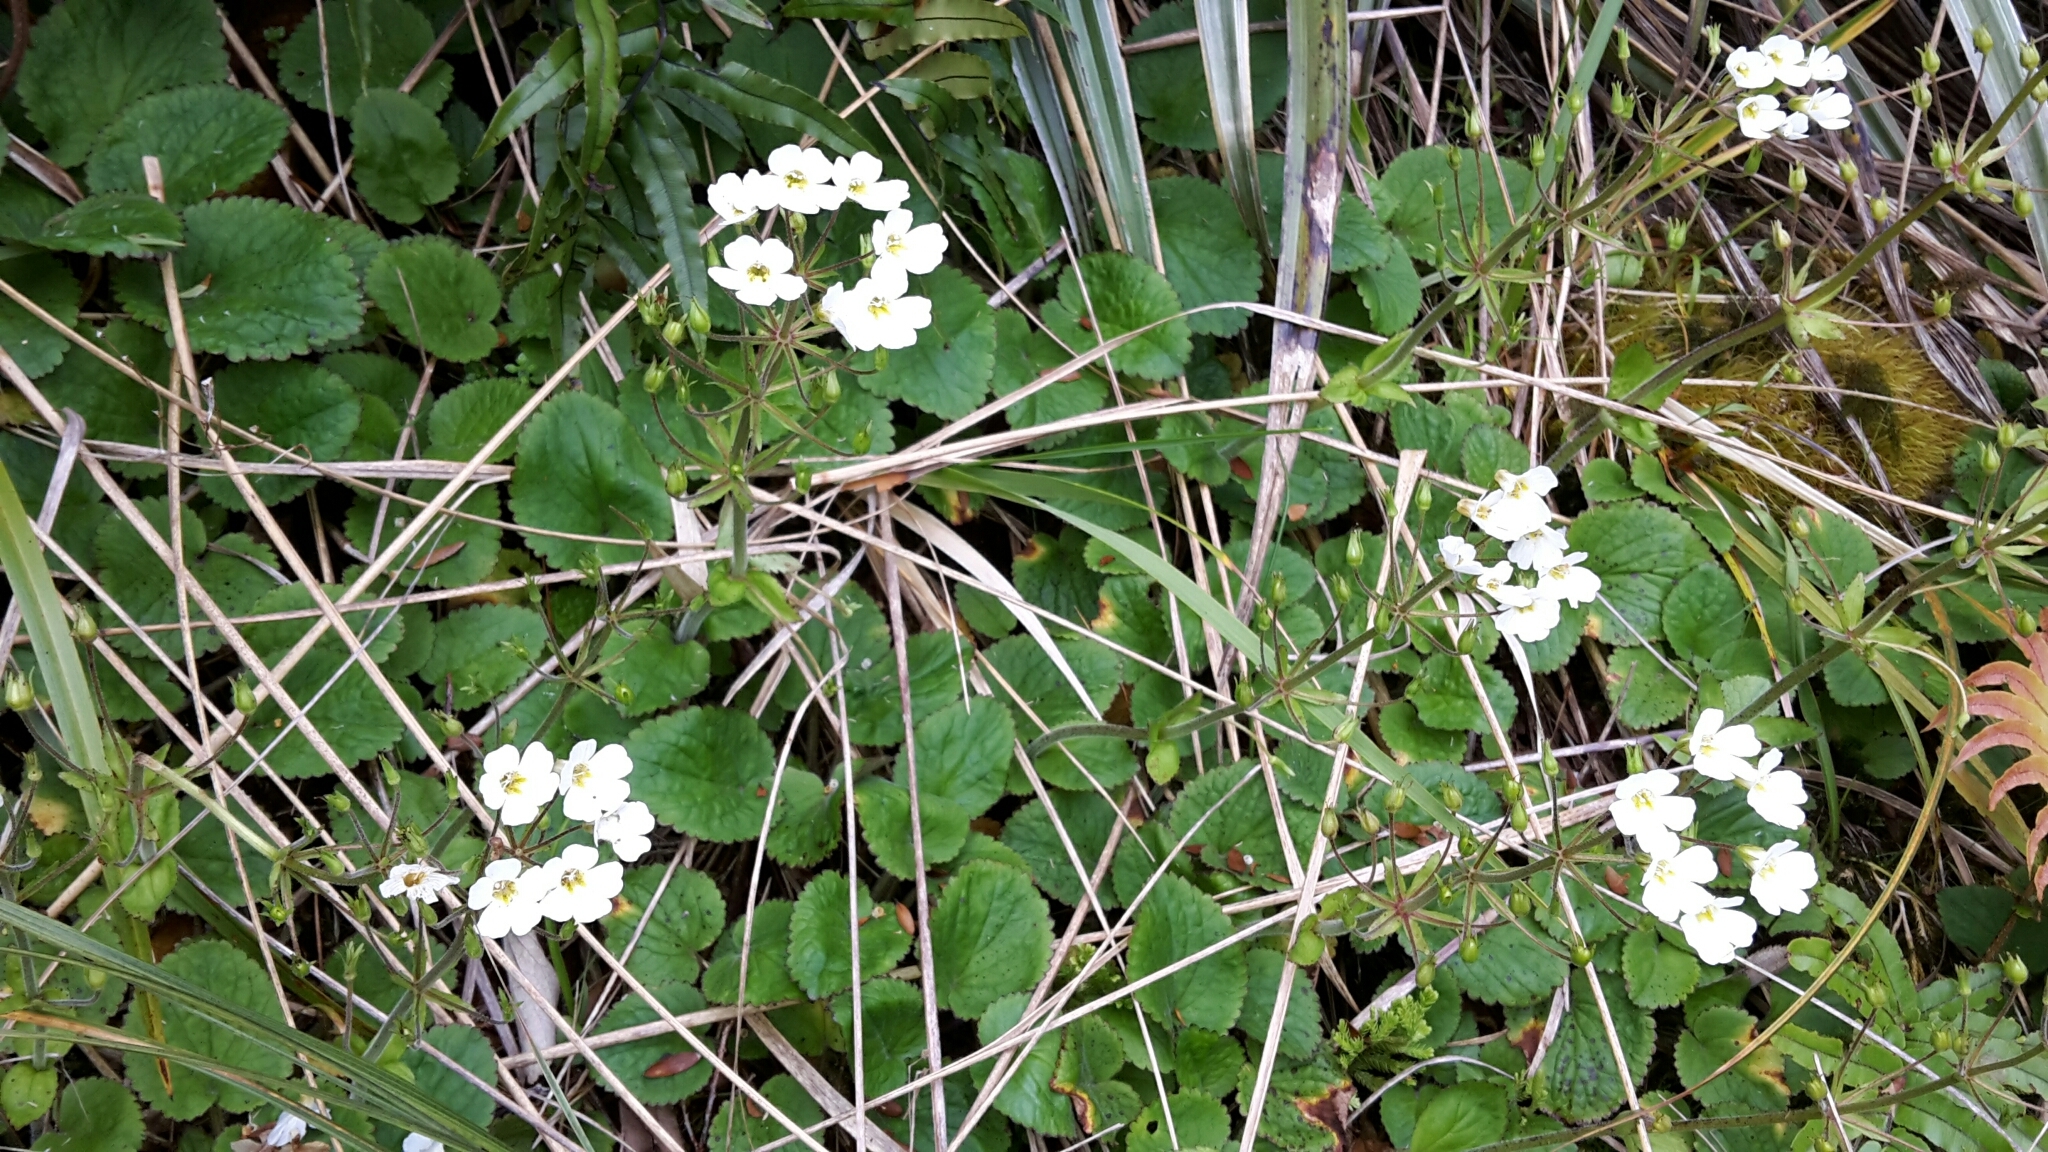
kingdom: Plantae
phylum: Tracheophyta
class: Magnoliopsida
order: Lamiales
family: Plantaginaceae
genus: Ourisia
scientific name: Ourisia macrophylla
